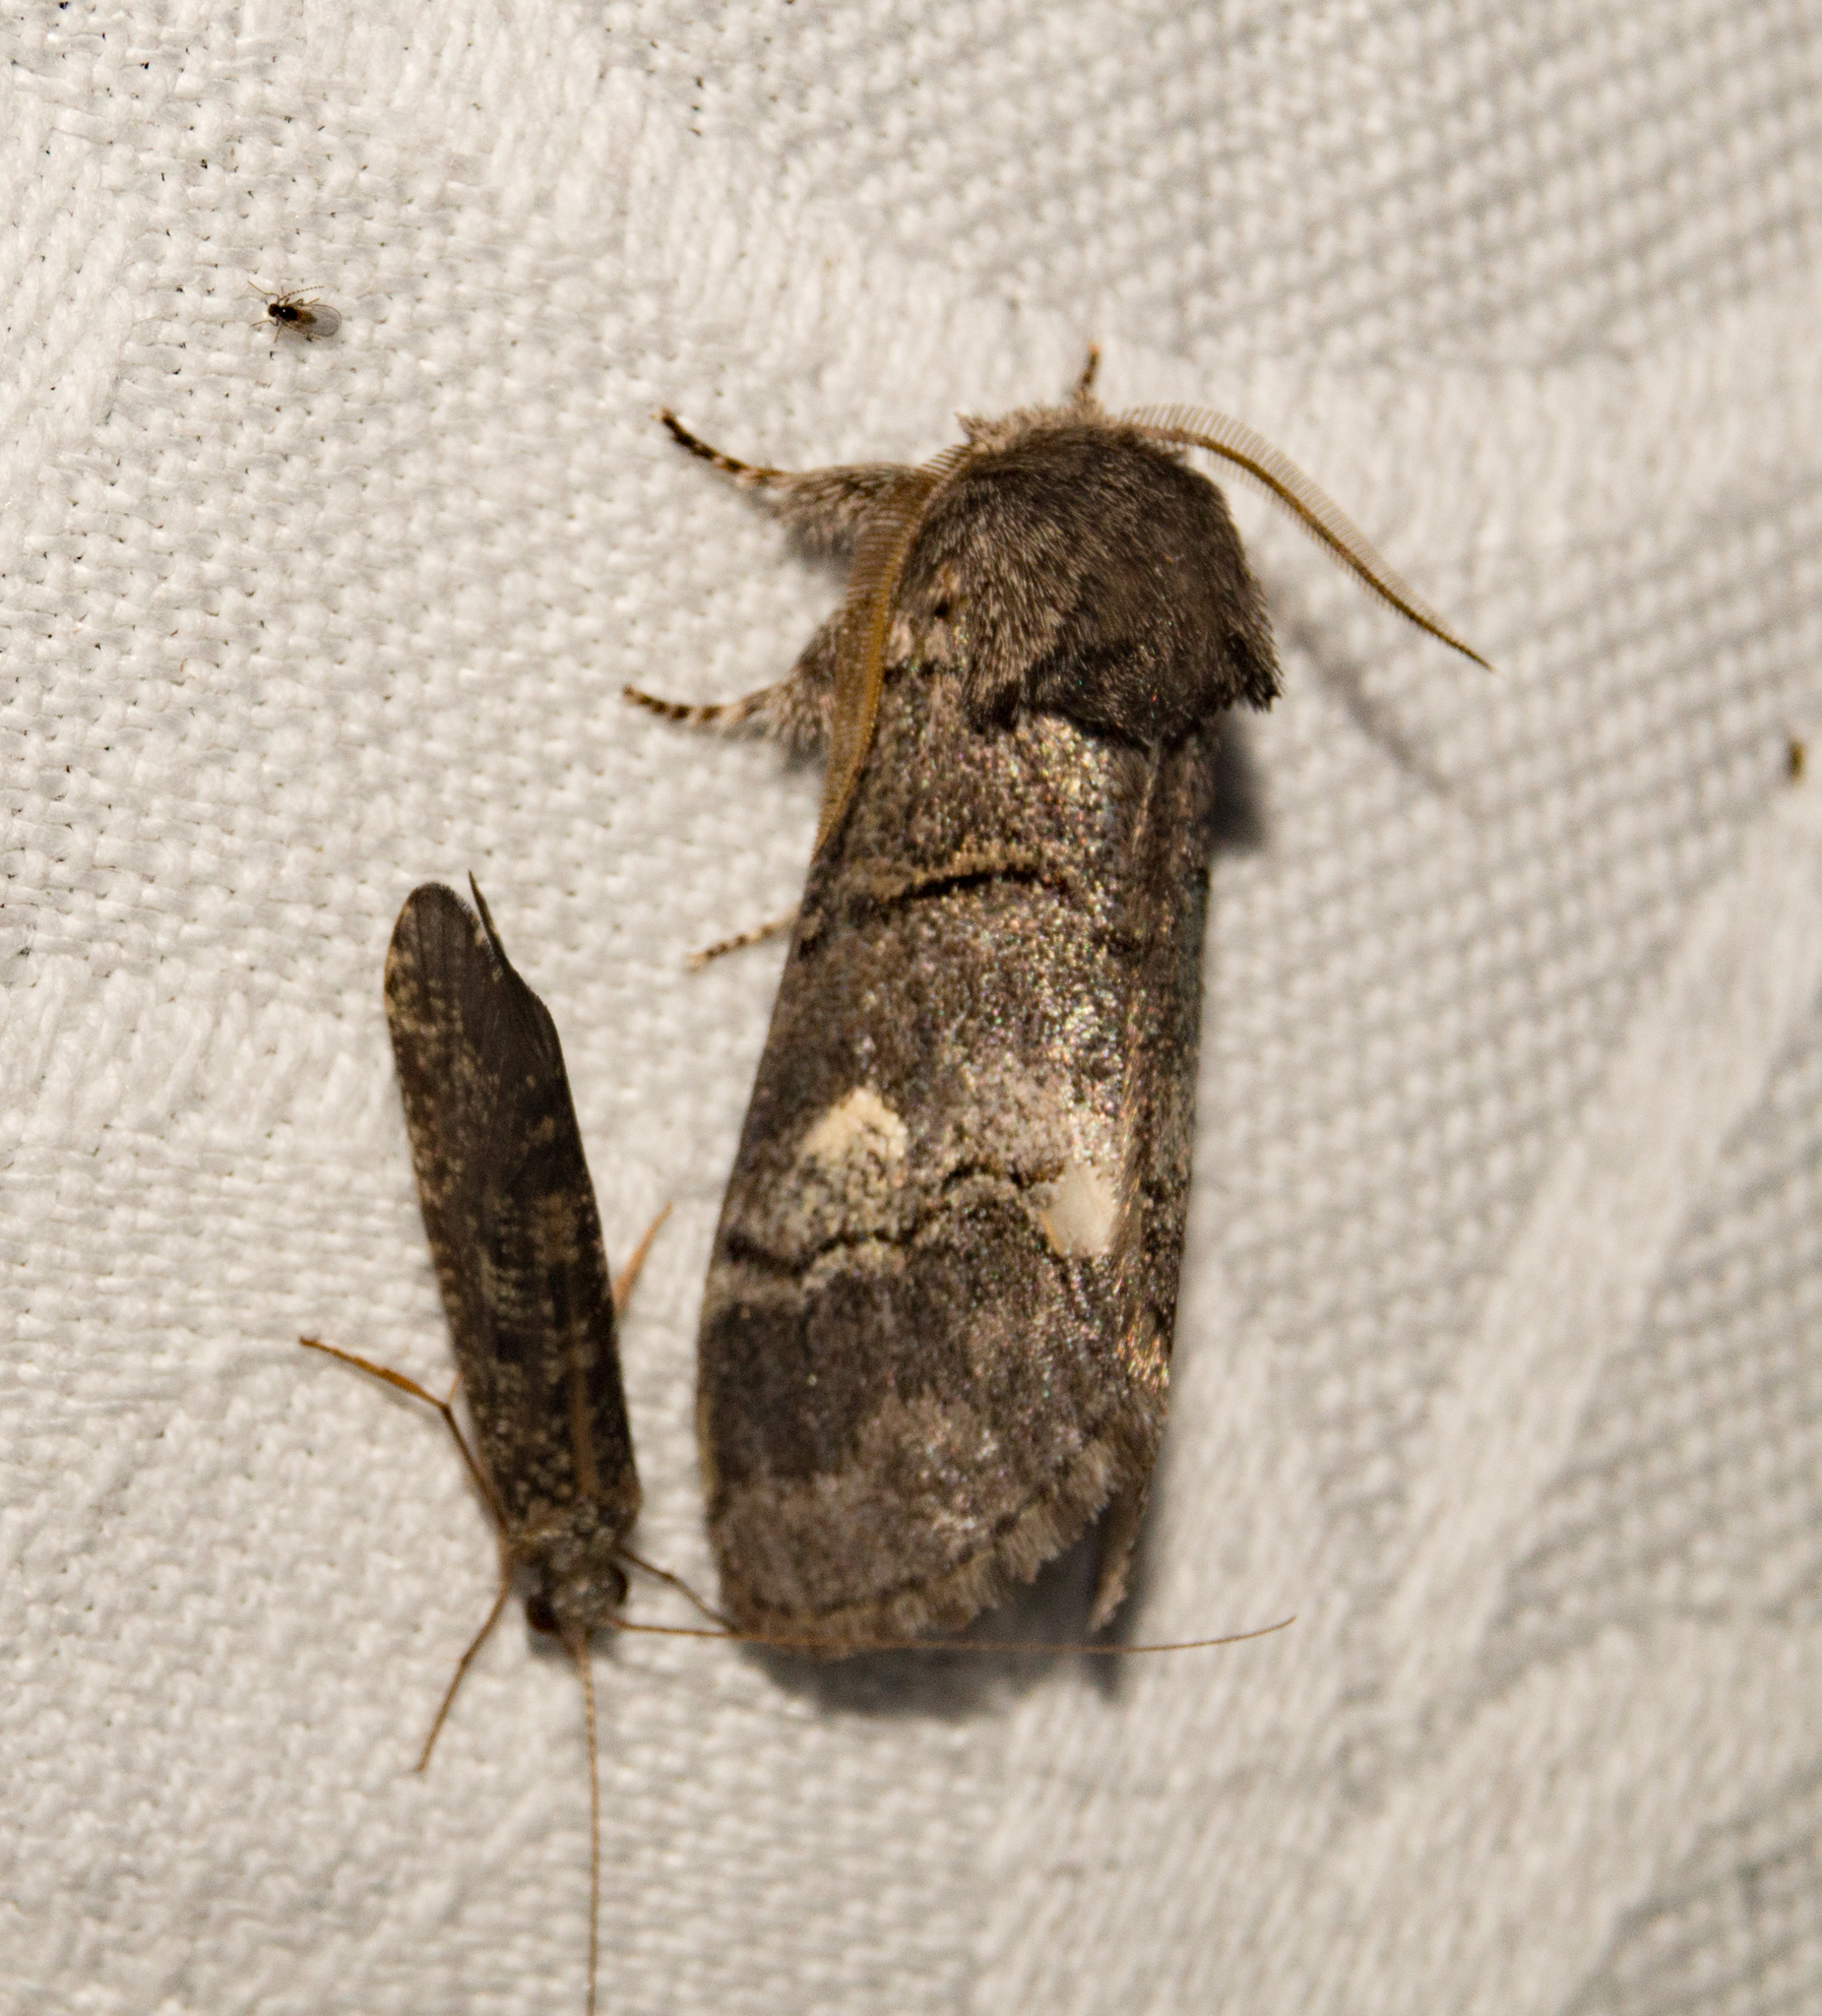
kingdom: Animalia
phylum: Arthropoda
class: Insecta
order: Lepidoptera
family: Notodontidae
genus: Drymonia
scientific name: Drymonia querna
